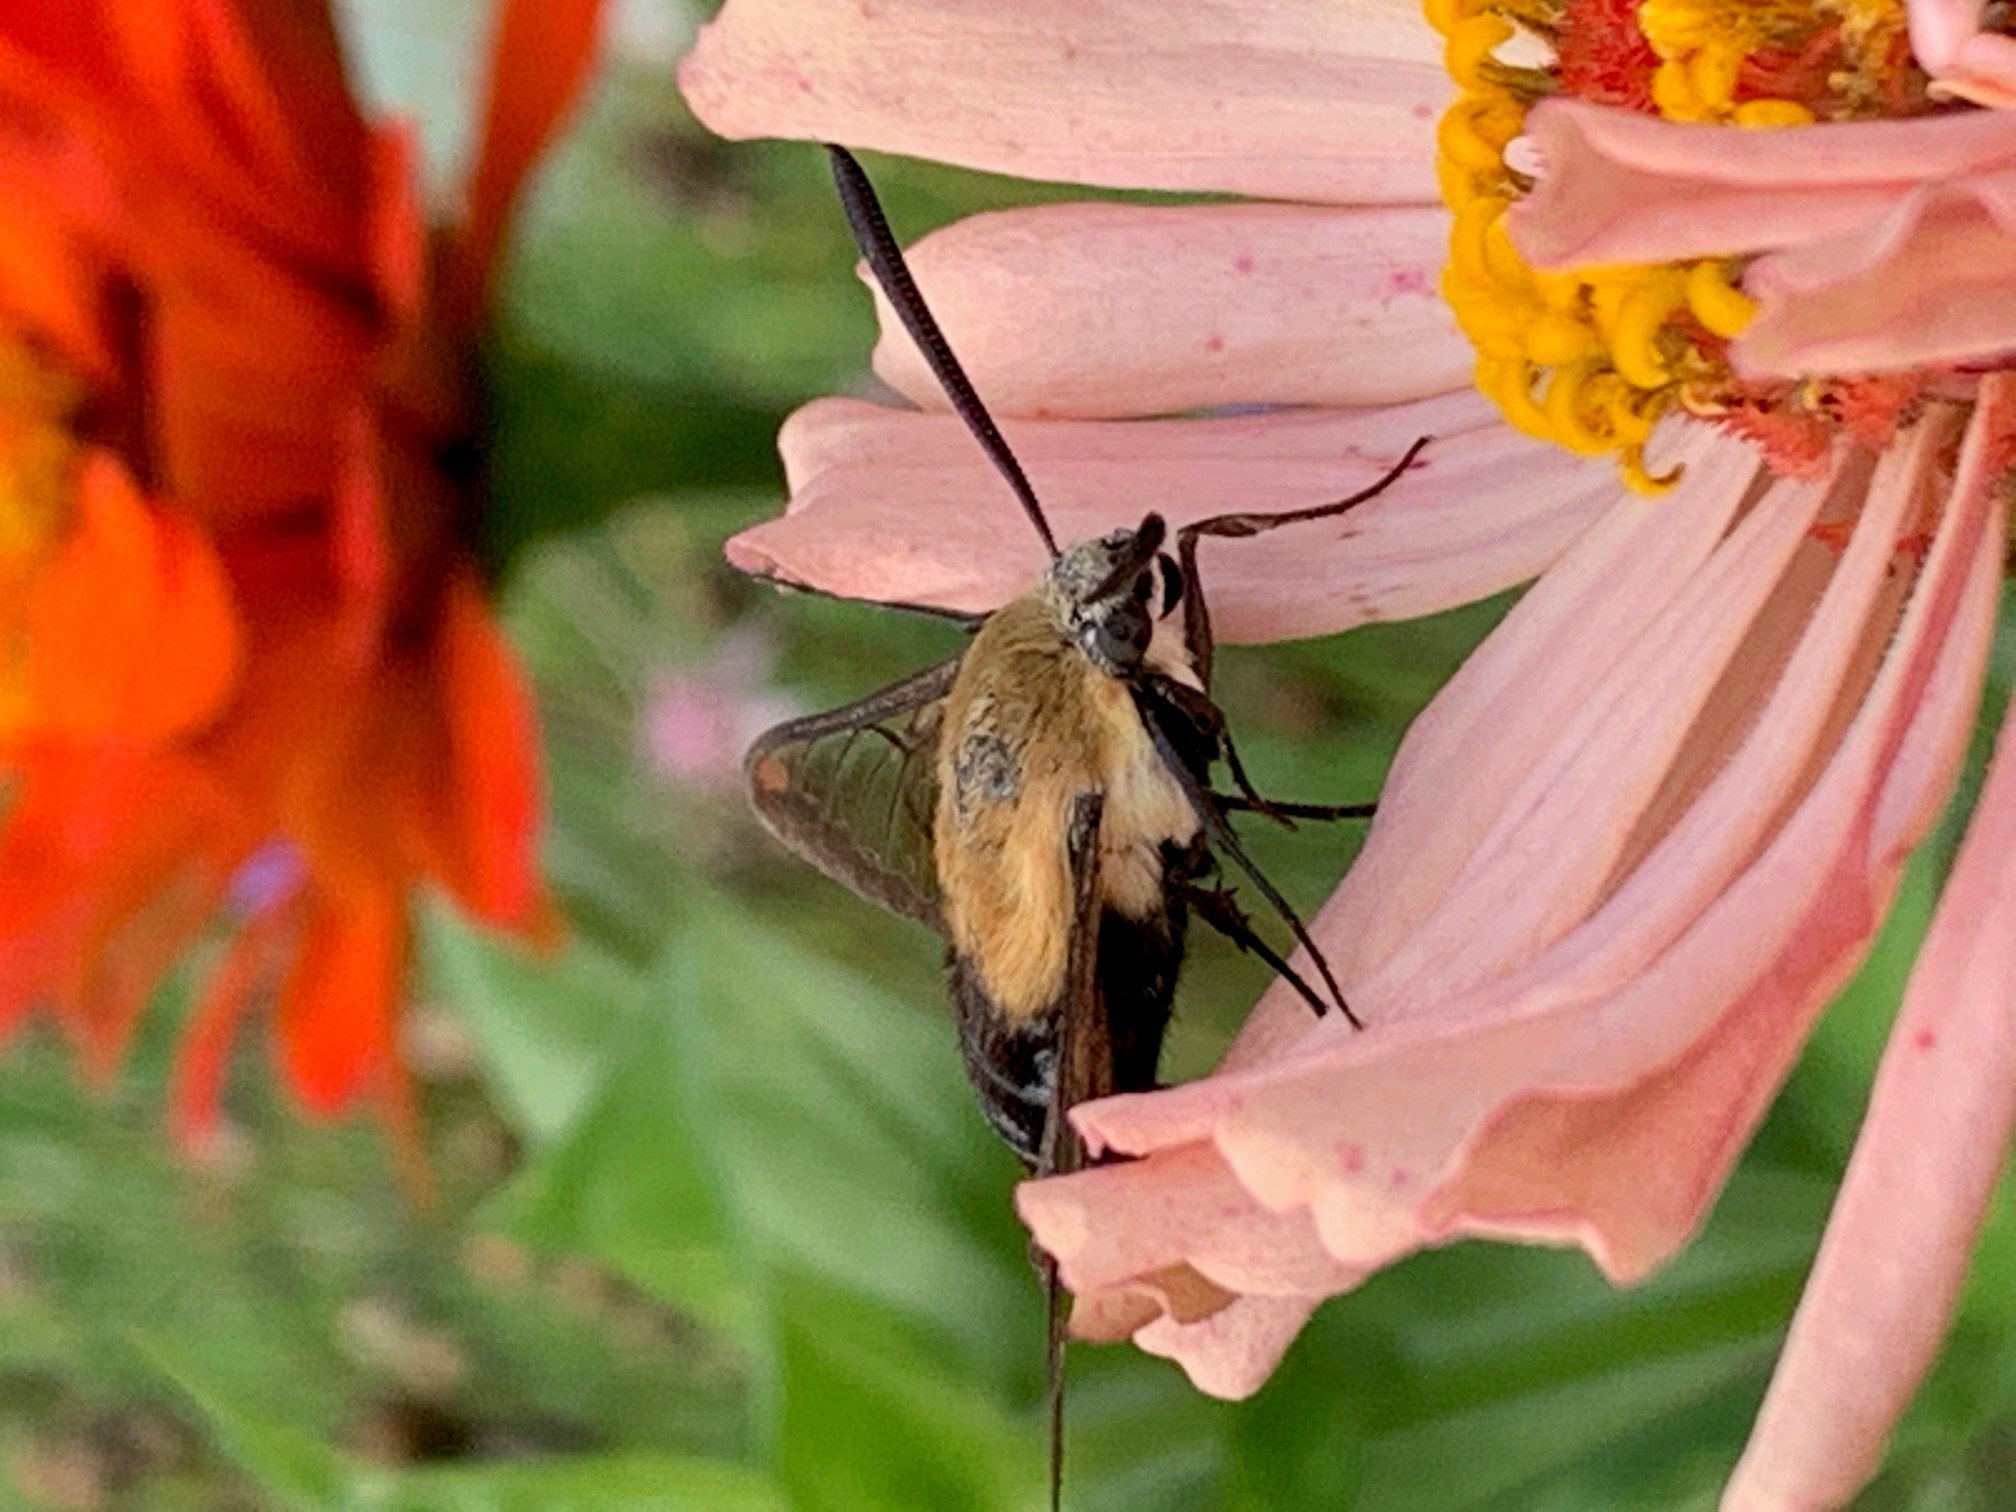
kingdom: Animalia
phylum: Arthropoda
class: Insecta
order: Lepidoptera
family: Sphingidae
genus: Hemaris
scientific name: Hemaris diffinis
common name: Bumblebee moth
